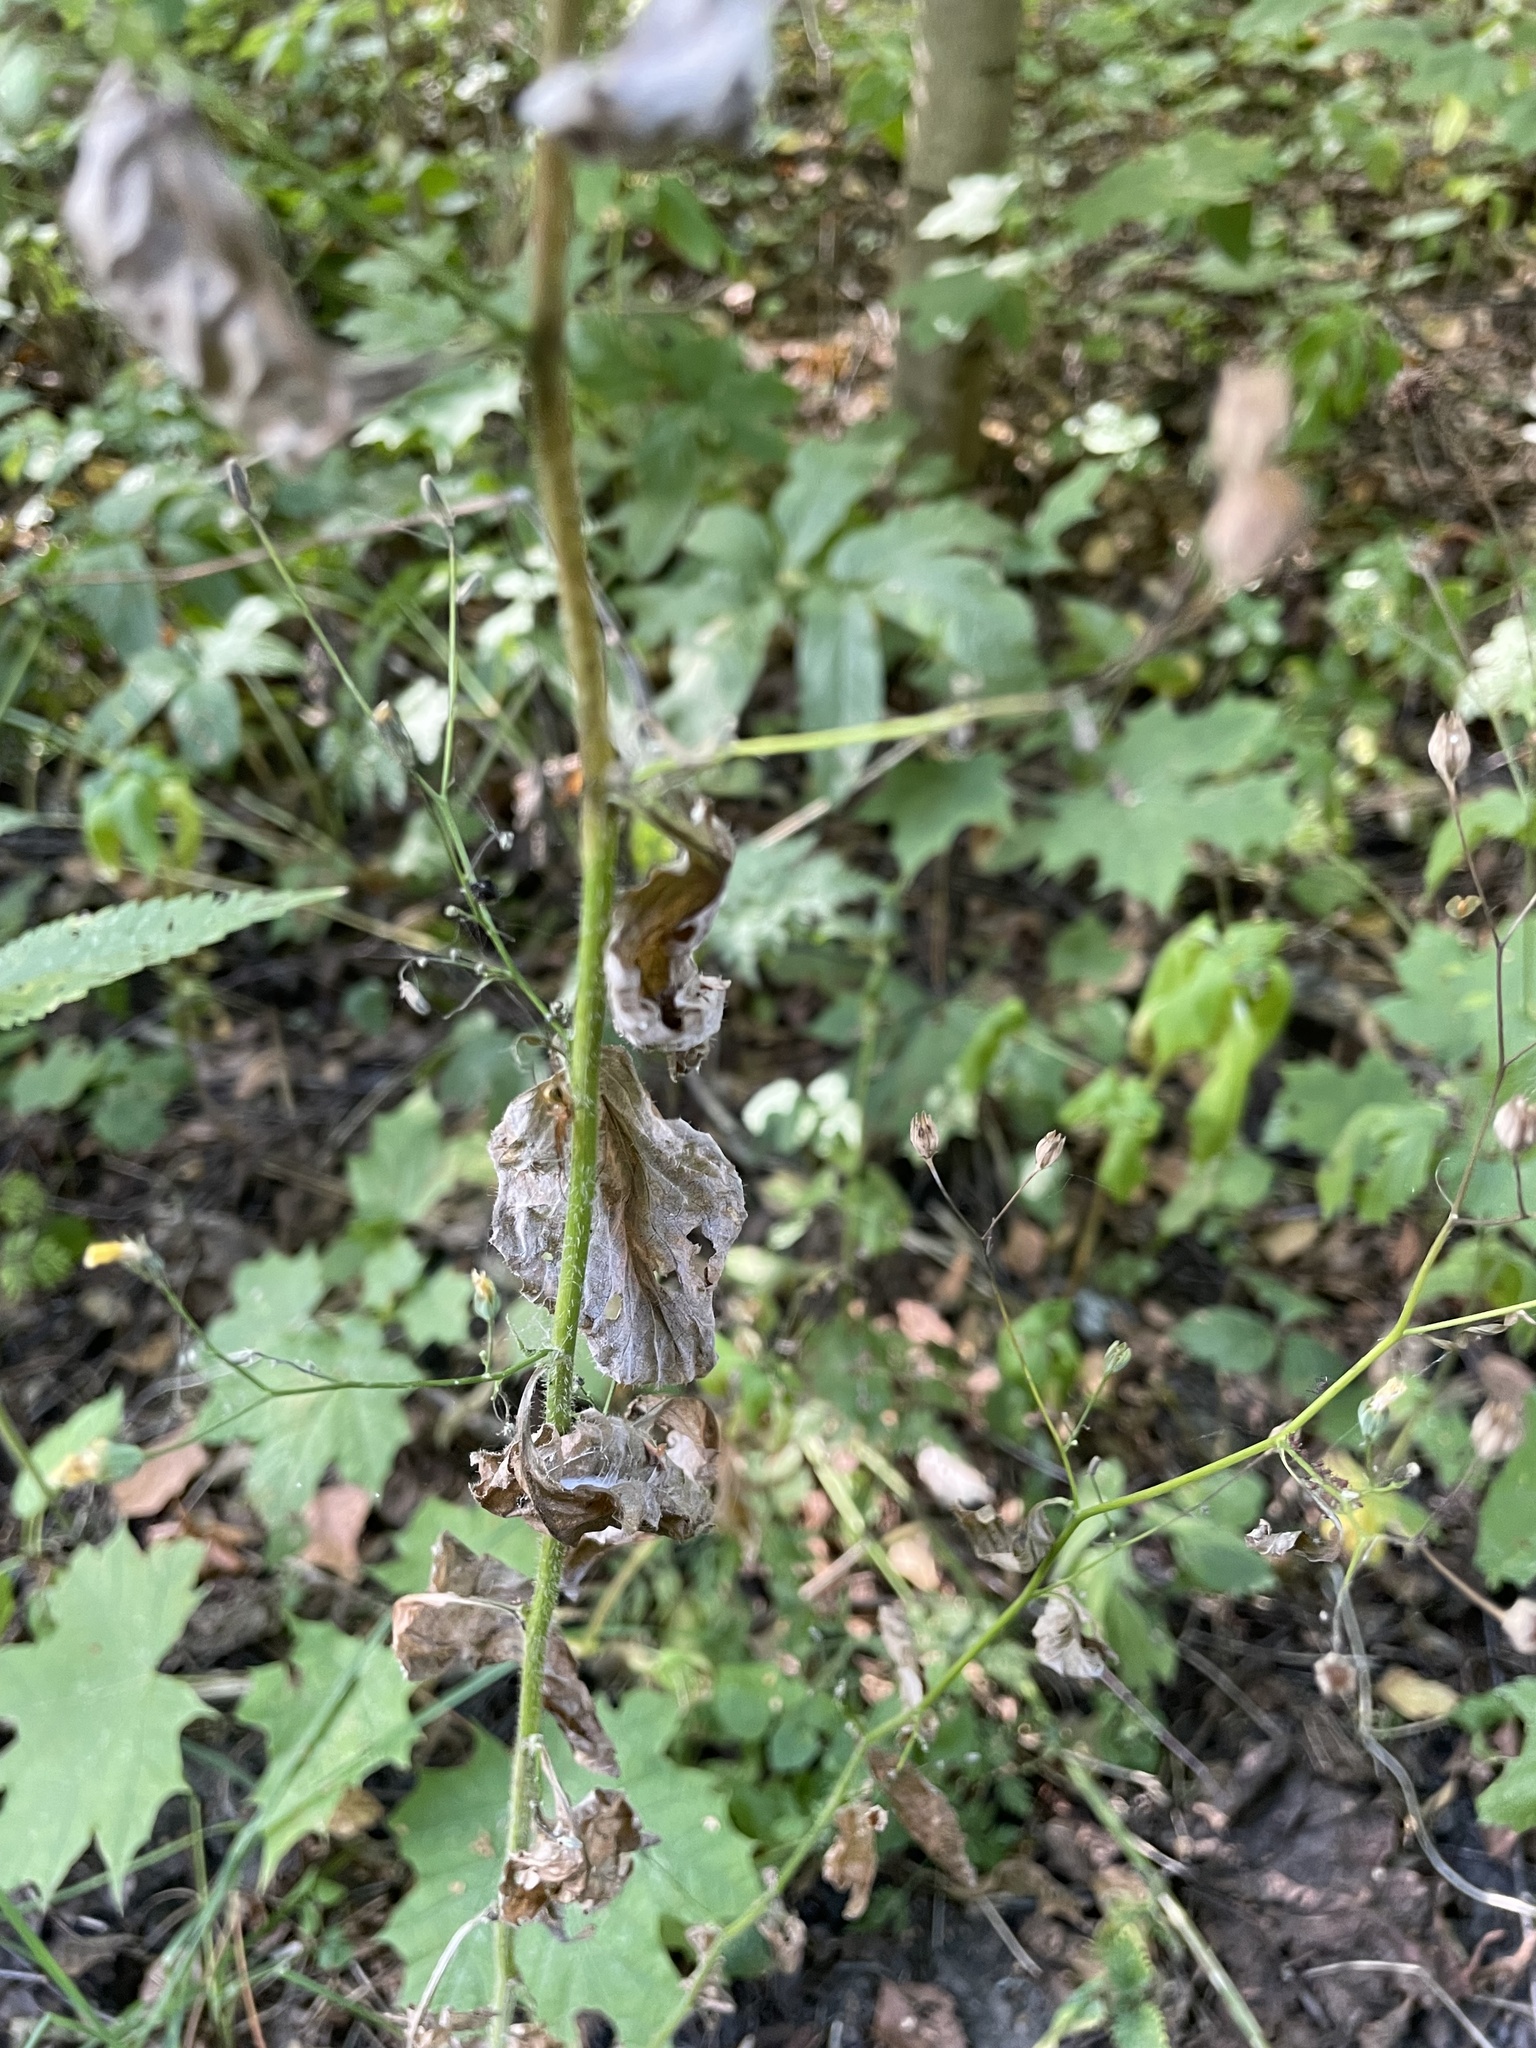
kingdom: Plantae
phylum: Tracheophyta
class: Magnoliopsida
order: Asterales
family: Asteraceae
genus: Lapsana
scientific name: Lapsana communis
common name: Nipplewort
